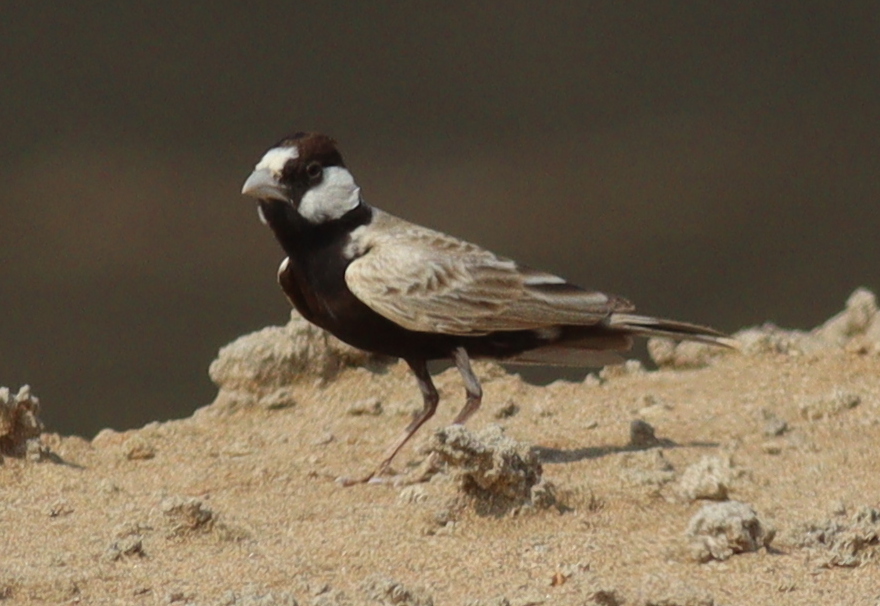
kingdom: Animalia
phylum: Chordata
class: Aves
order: Passeriformes
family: Alaudidae
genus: Eremopterix
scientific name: Eremopterix nigriceps
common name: Black-crowned sparrow-lark
